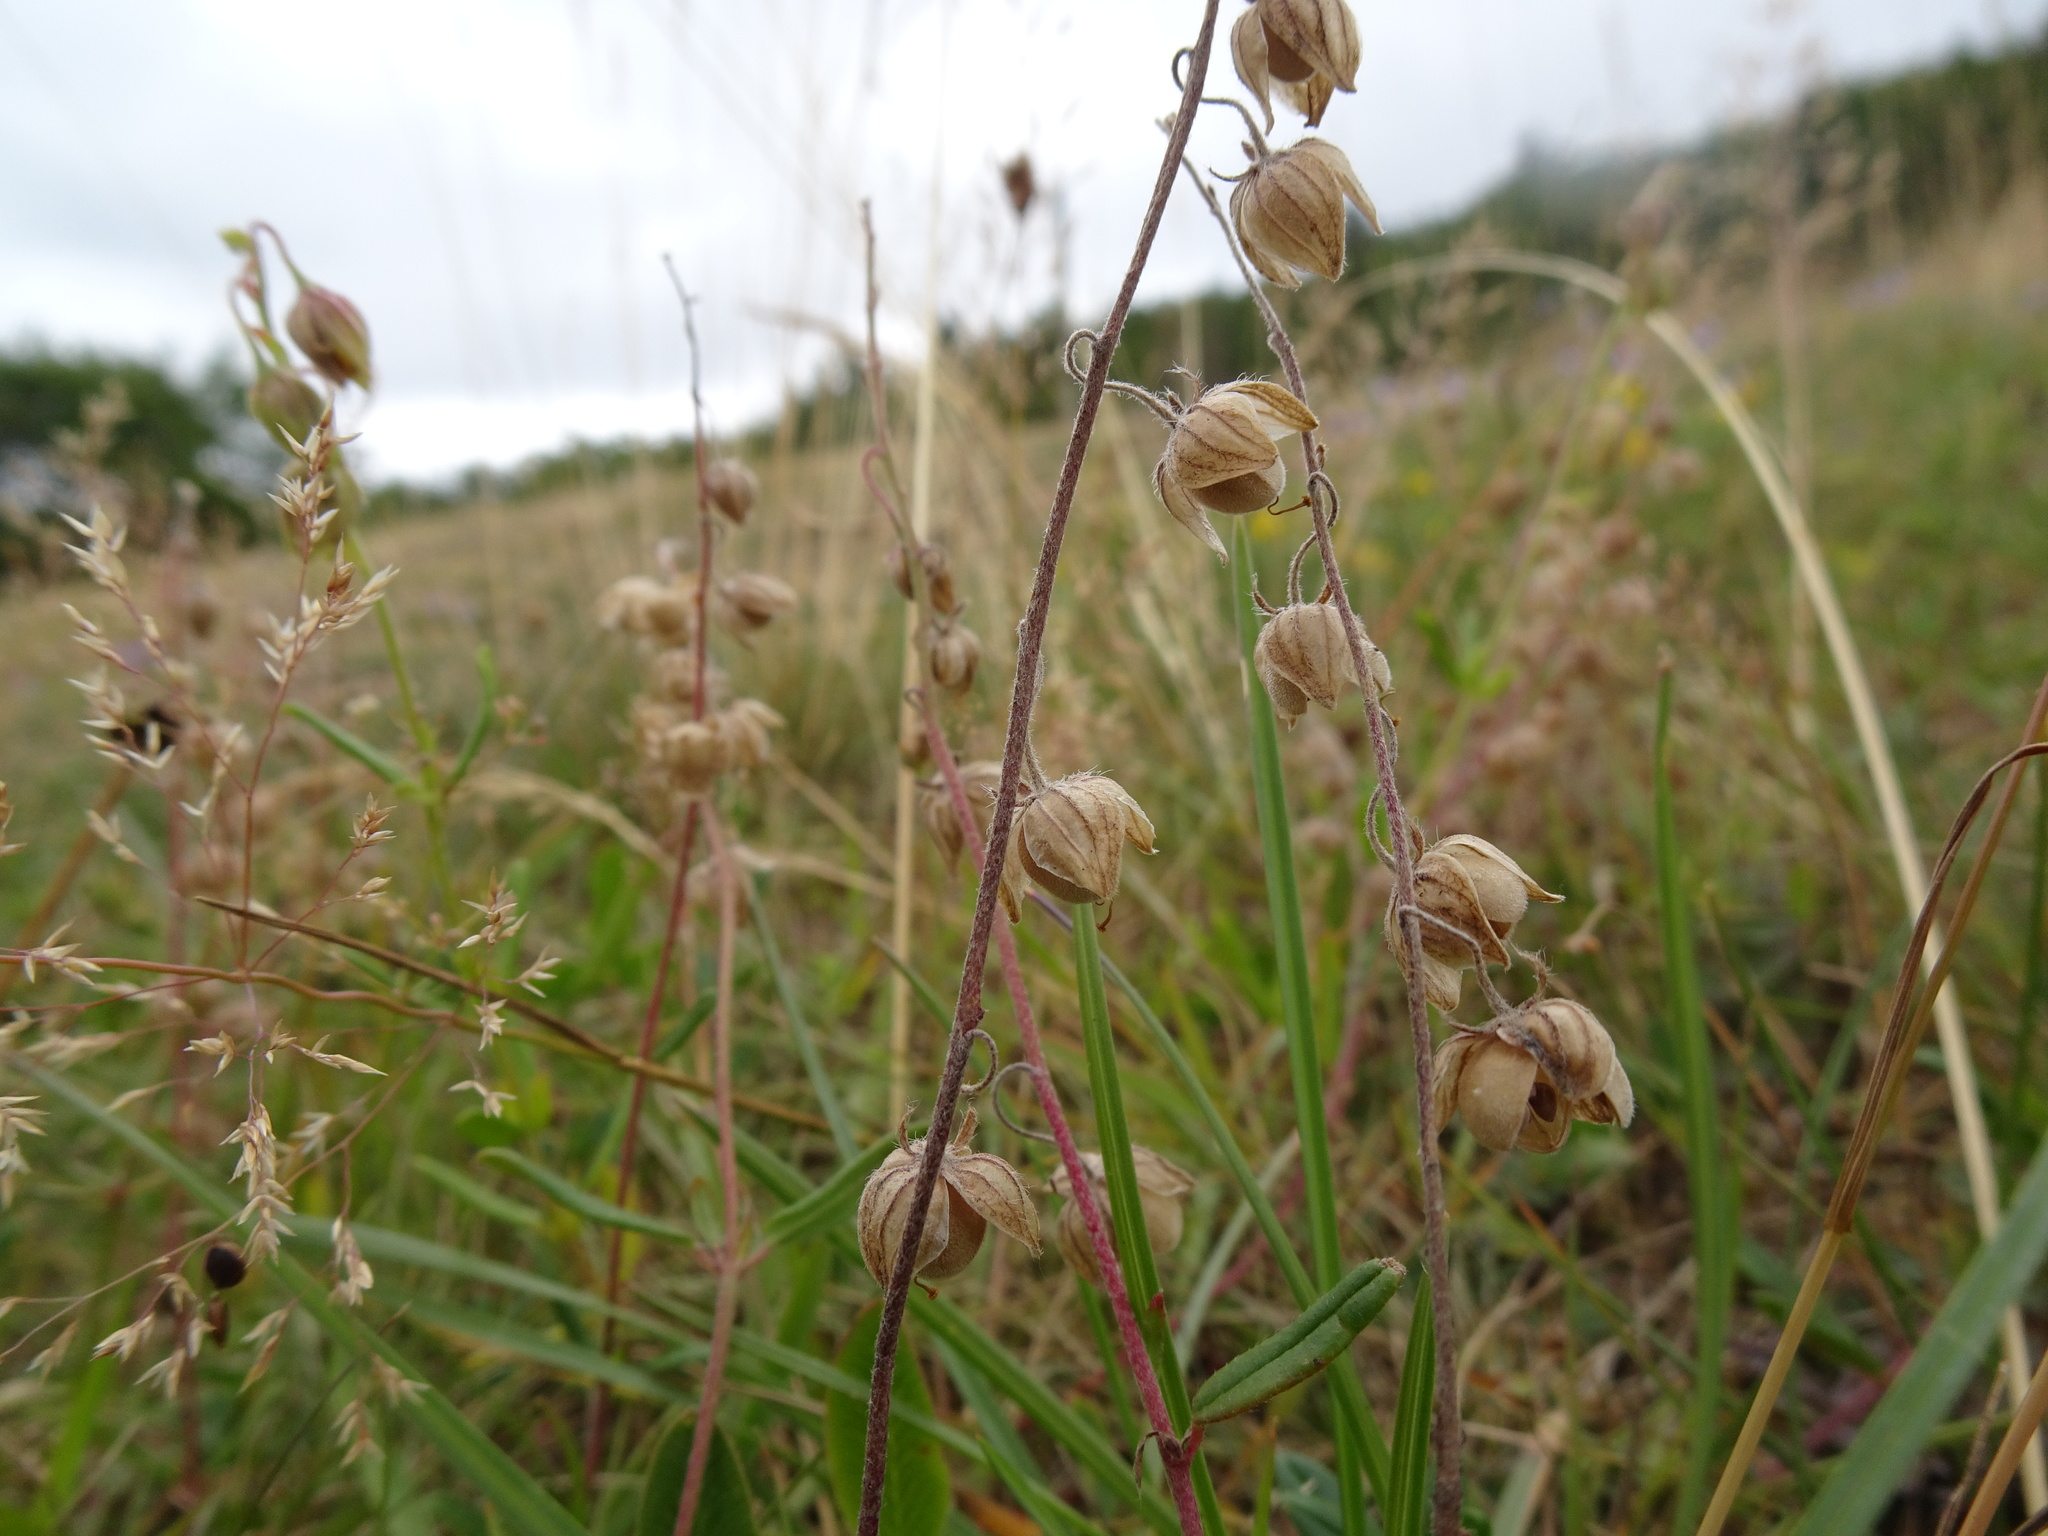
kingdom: Plantae
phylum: Tracheophyta
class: Magnoliopsida
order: Malvales
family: Cistaceae
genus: Helianthemum
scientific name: Helianthemum nummularium
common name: Common rock-rose
